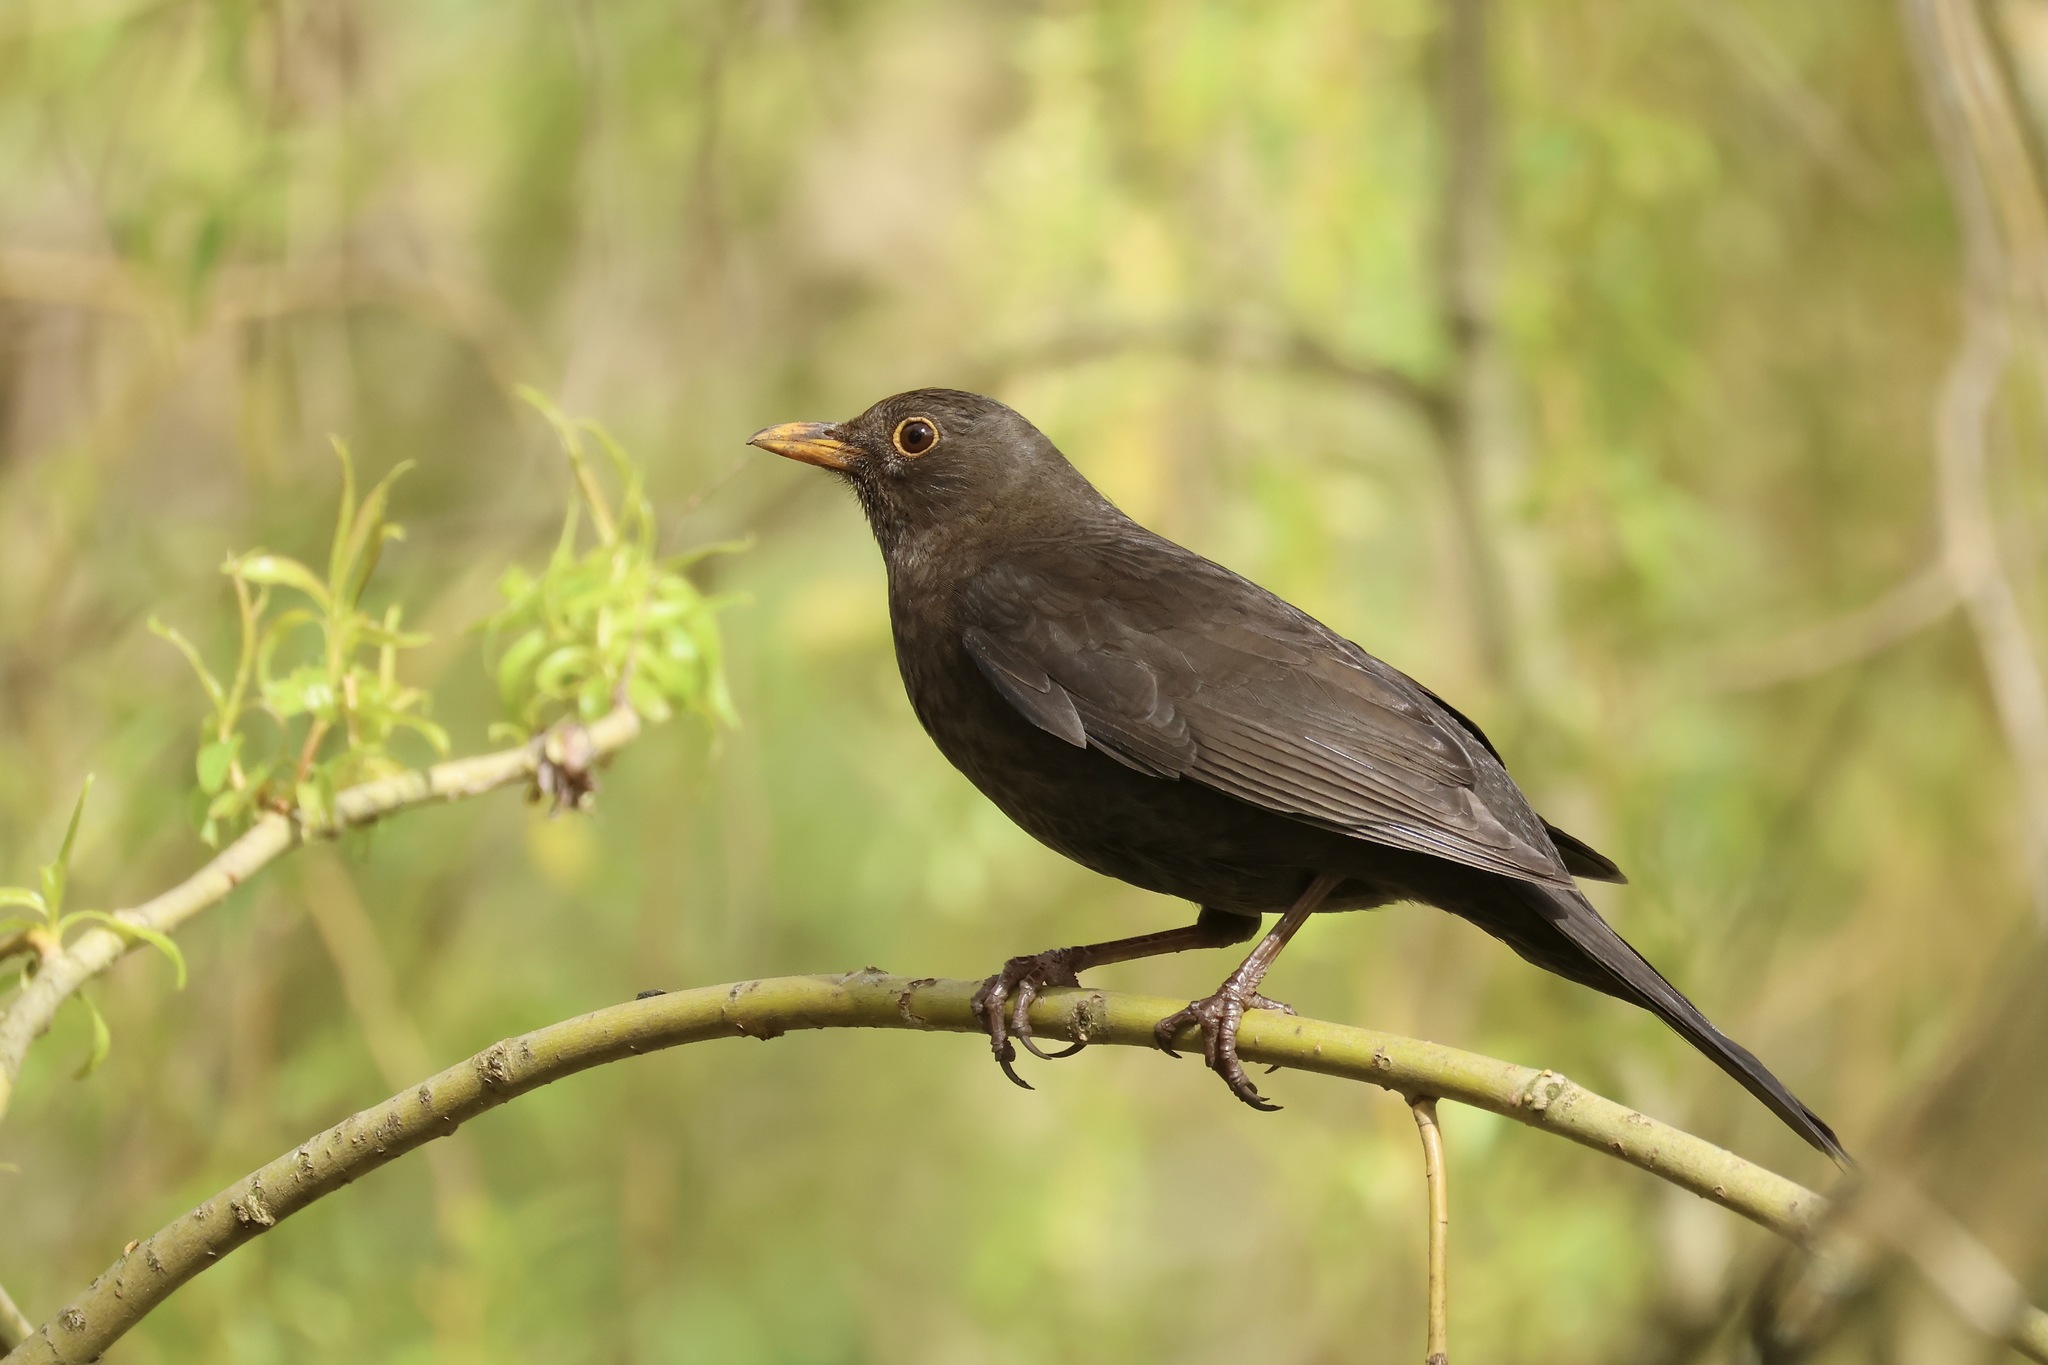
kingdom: Animalia
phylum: Chordata
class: Aves
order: Passeriformes
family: Turdidae
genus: Turdus
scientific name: Turdus merula
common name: Common blackbird
